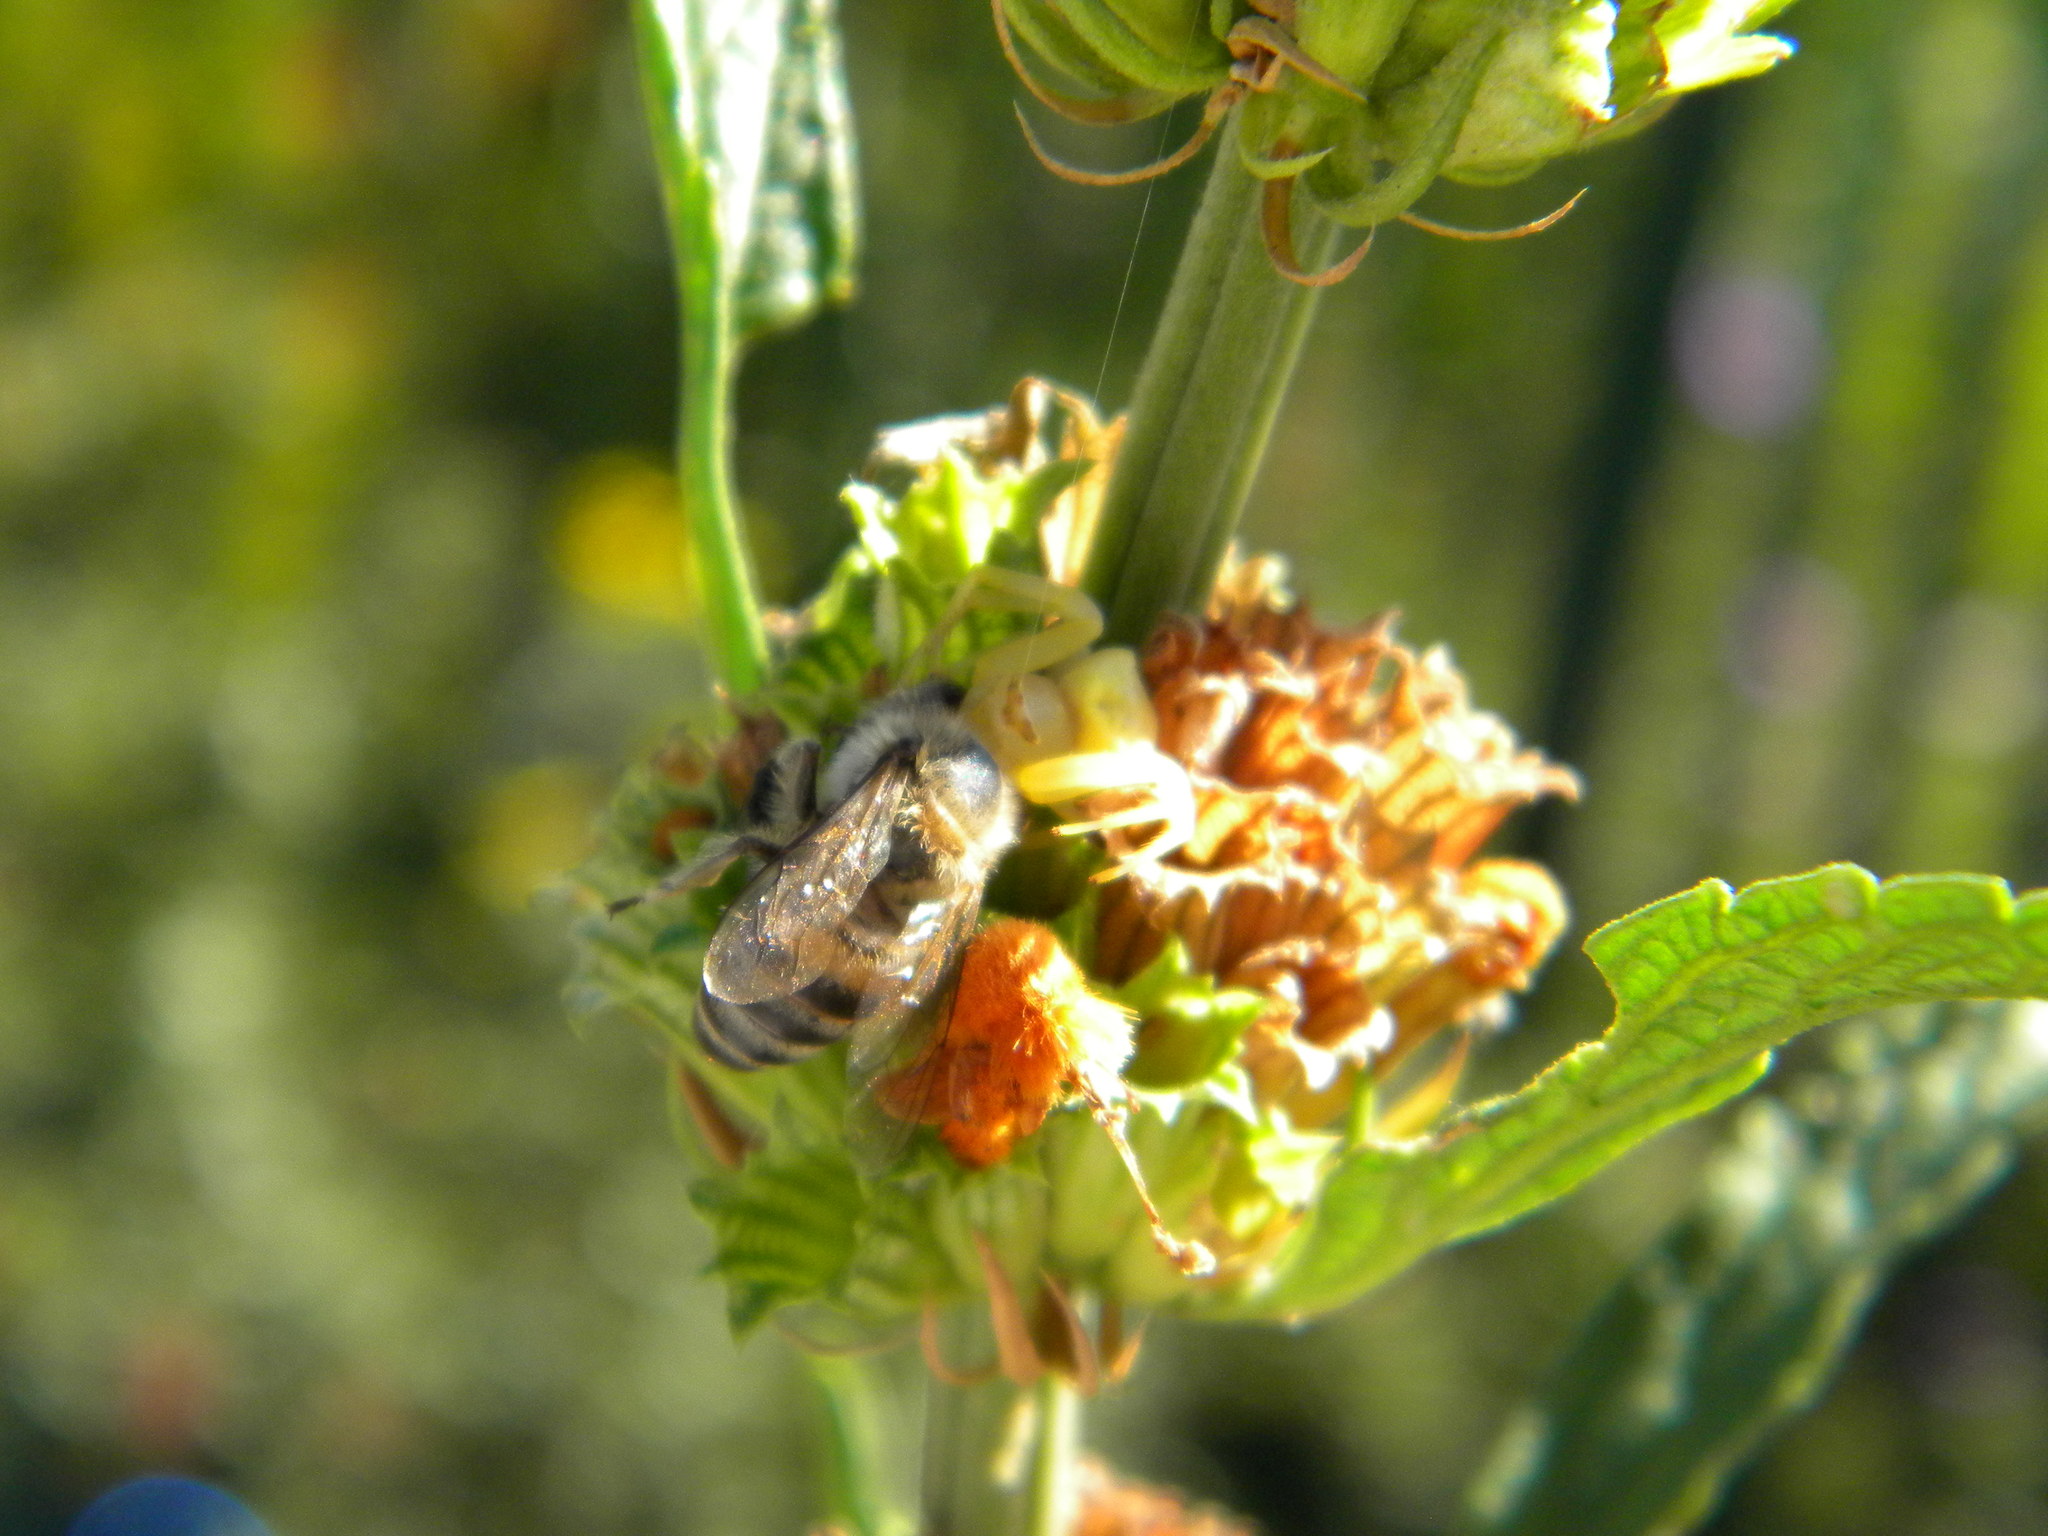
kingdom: Animalia
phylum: Arthropoda
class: Insecta
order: Hymenoptera
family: Apidae
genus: Apis
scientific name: Apis mellifera
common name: Honey bee
